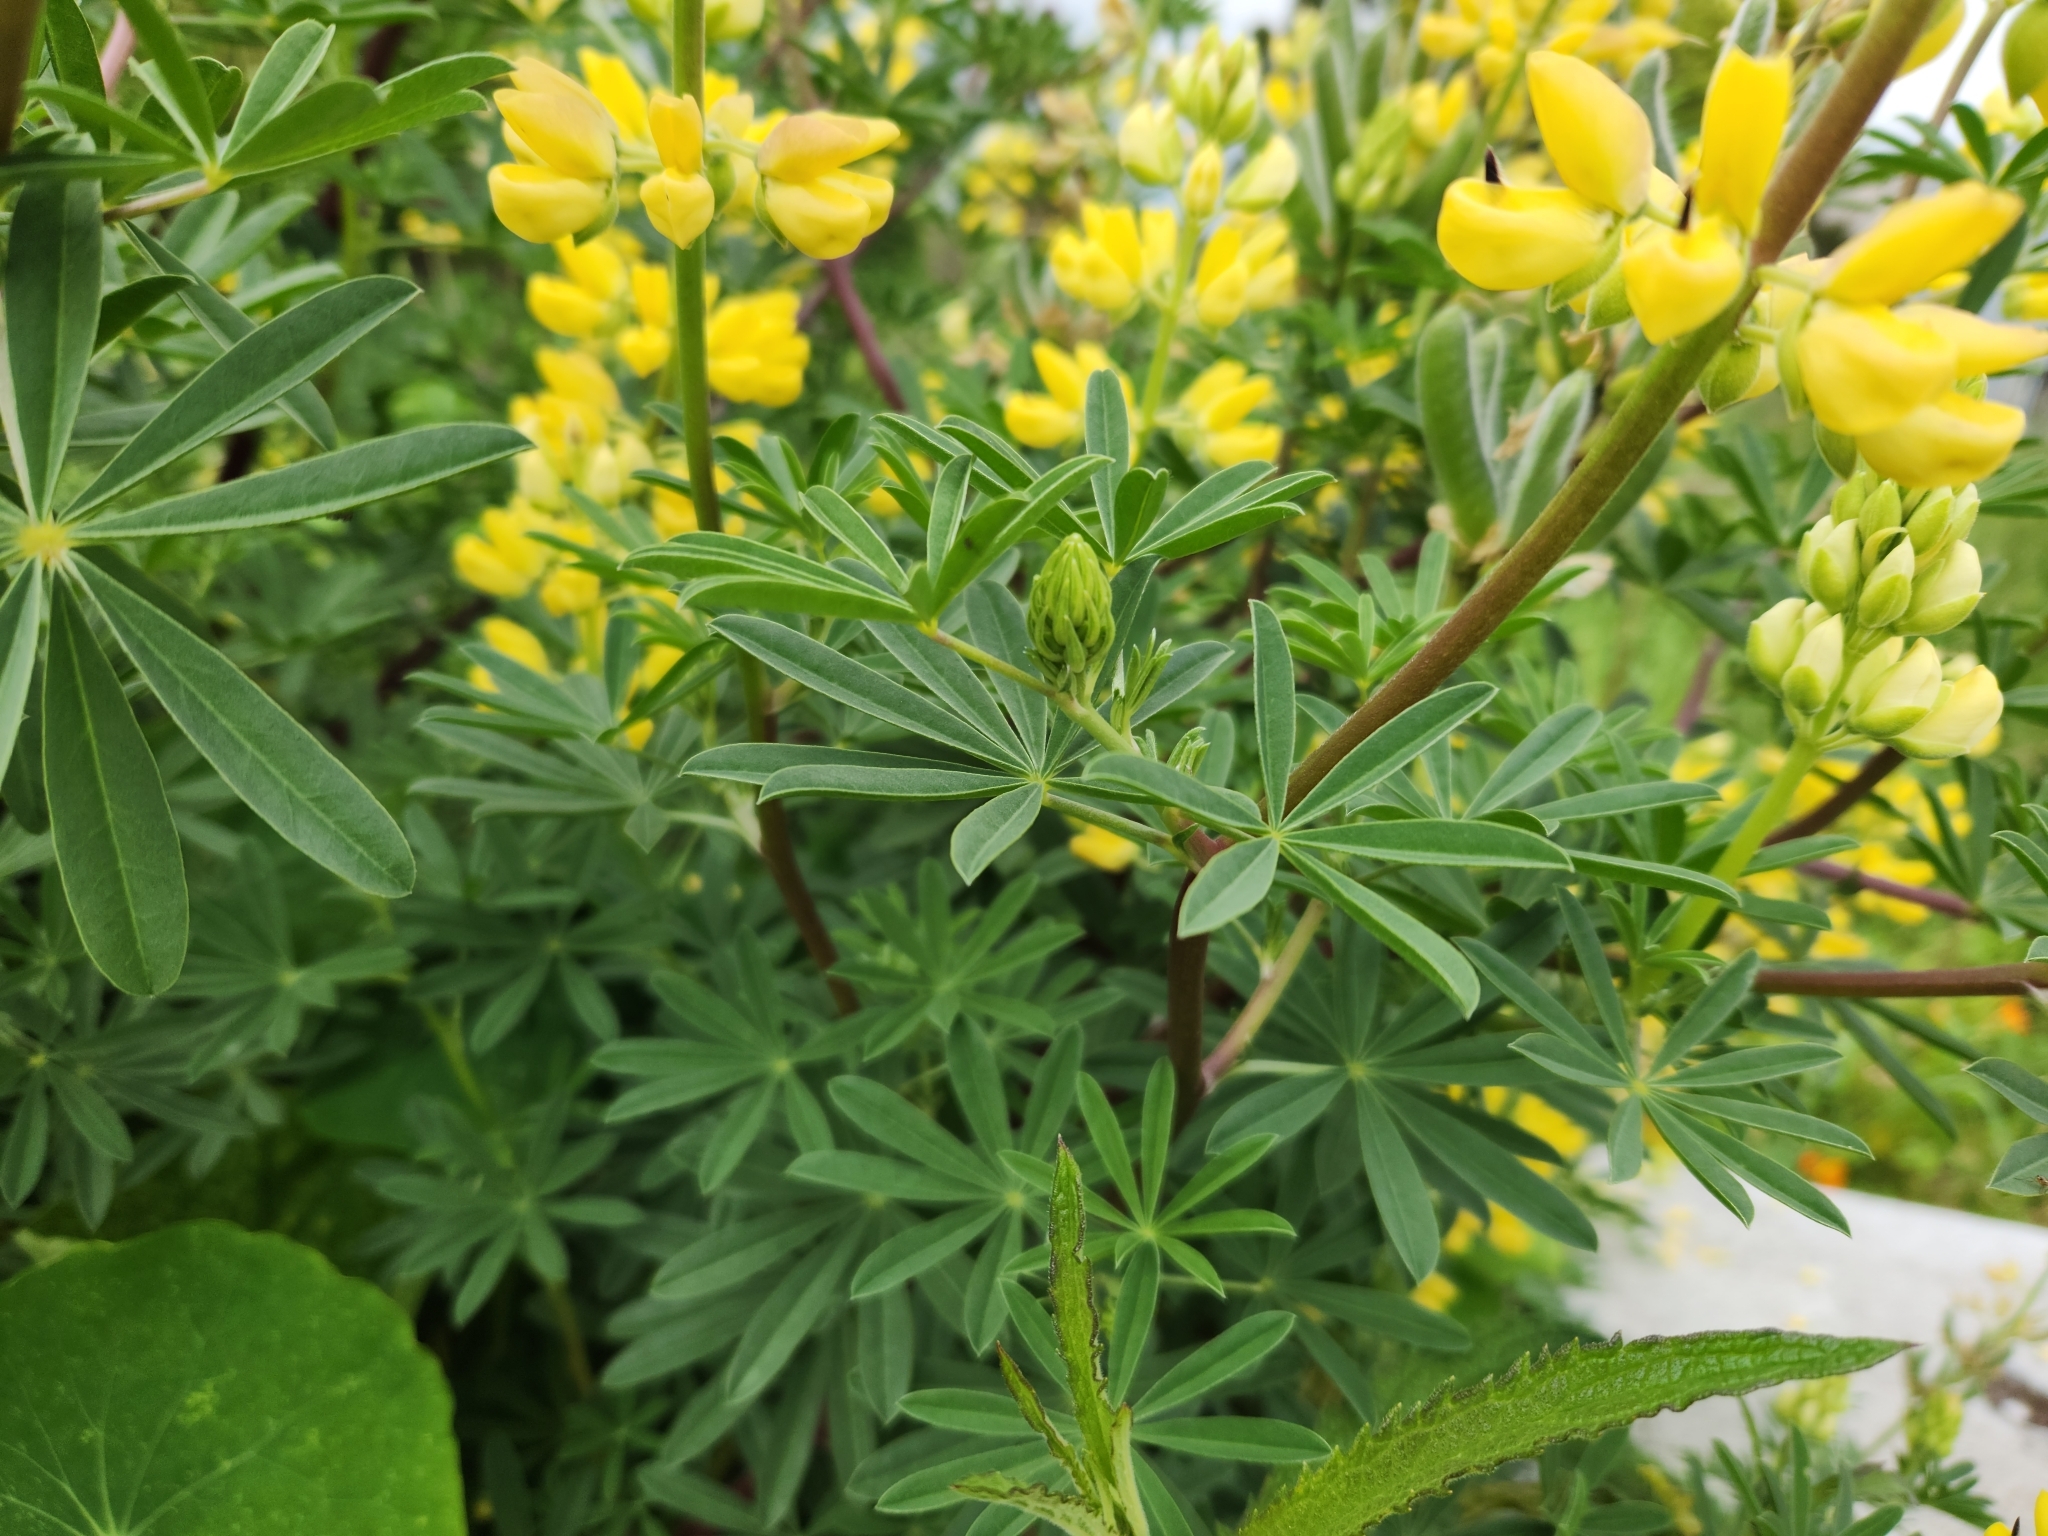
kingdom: Plantae
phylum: Tracheophyta
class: Magnoliopsida
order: Fabales
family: Fabaceae
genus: Lupinus
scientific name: Lupinus arboreus
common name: Yellow bush lupine
